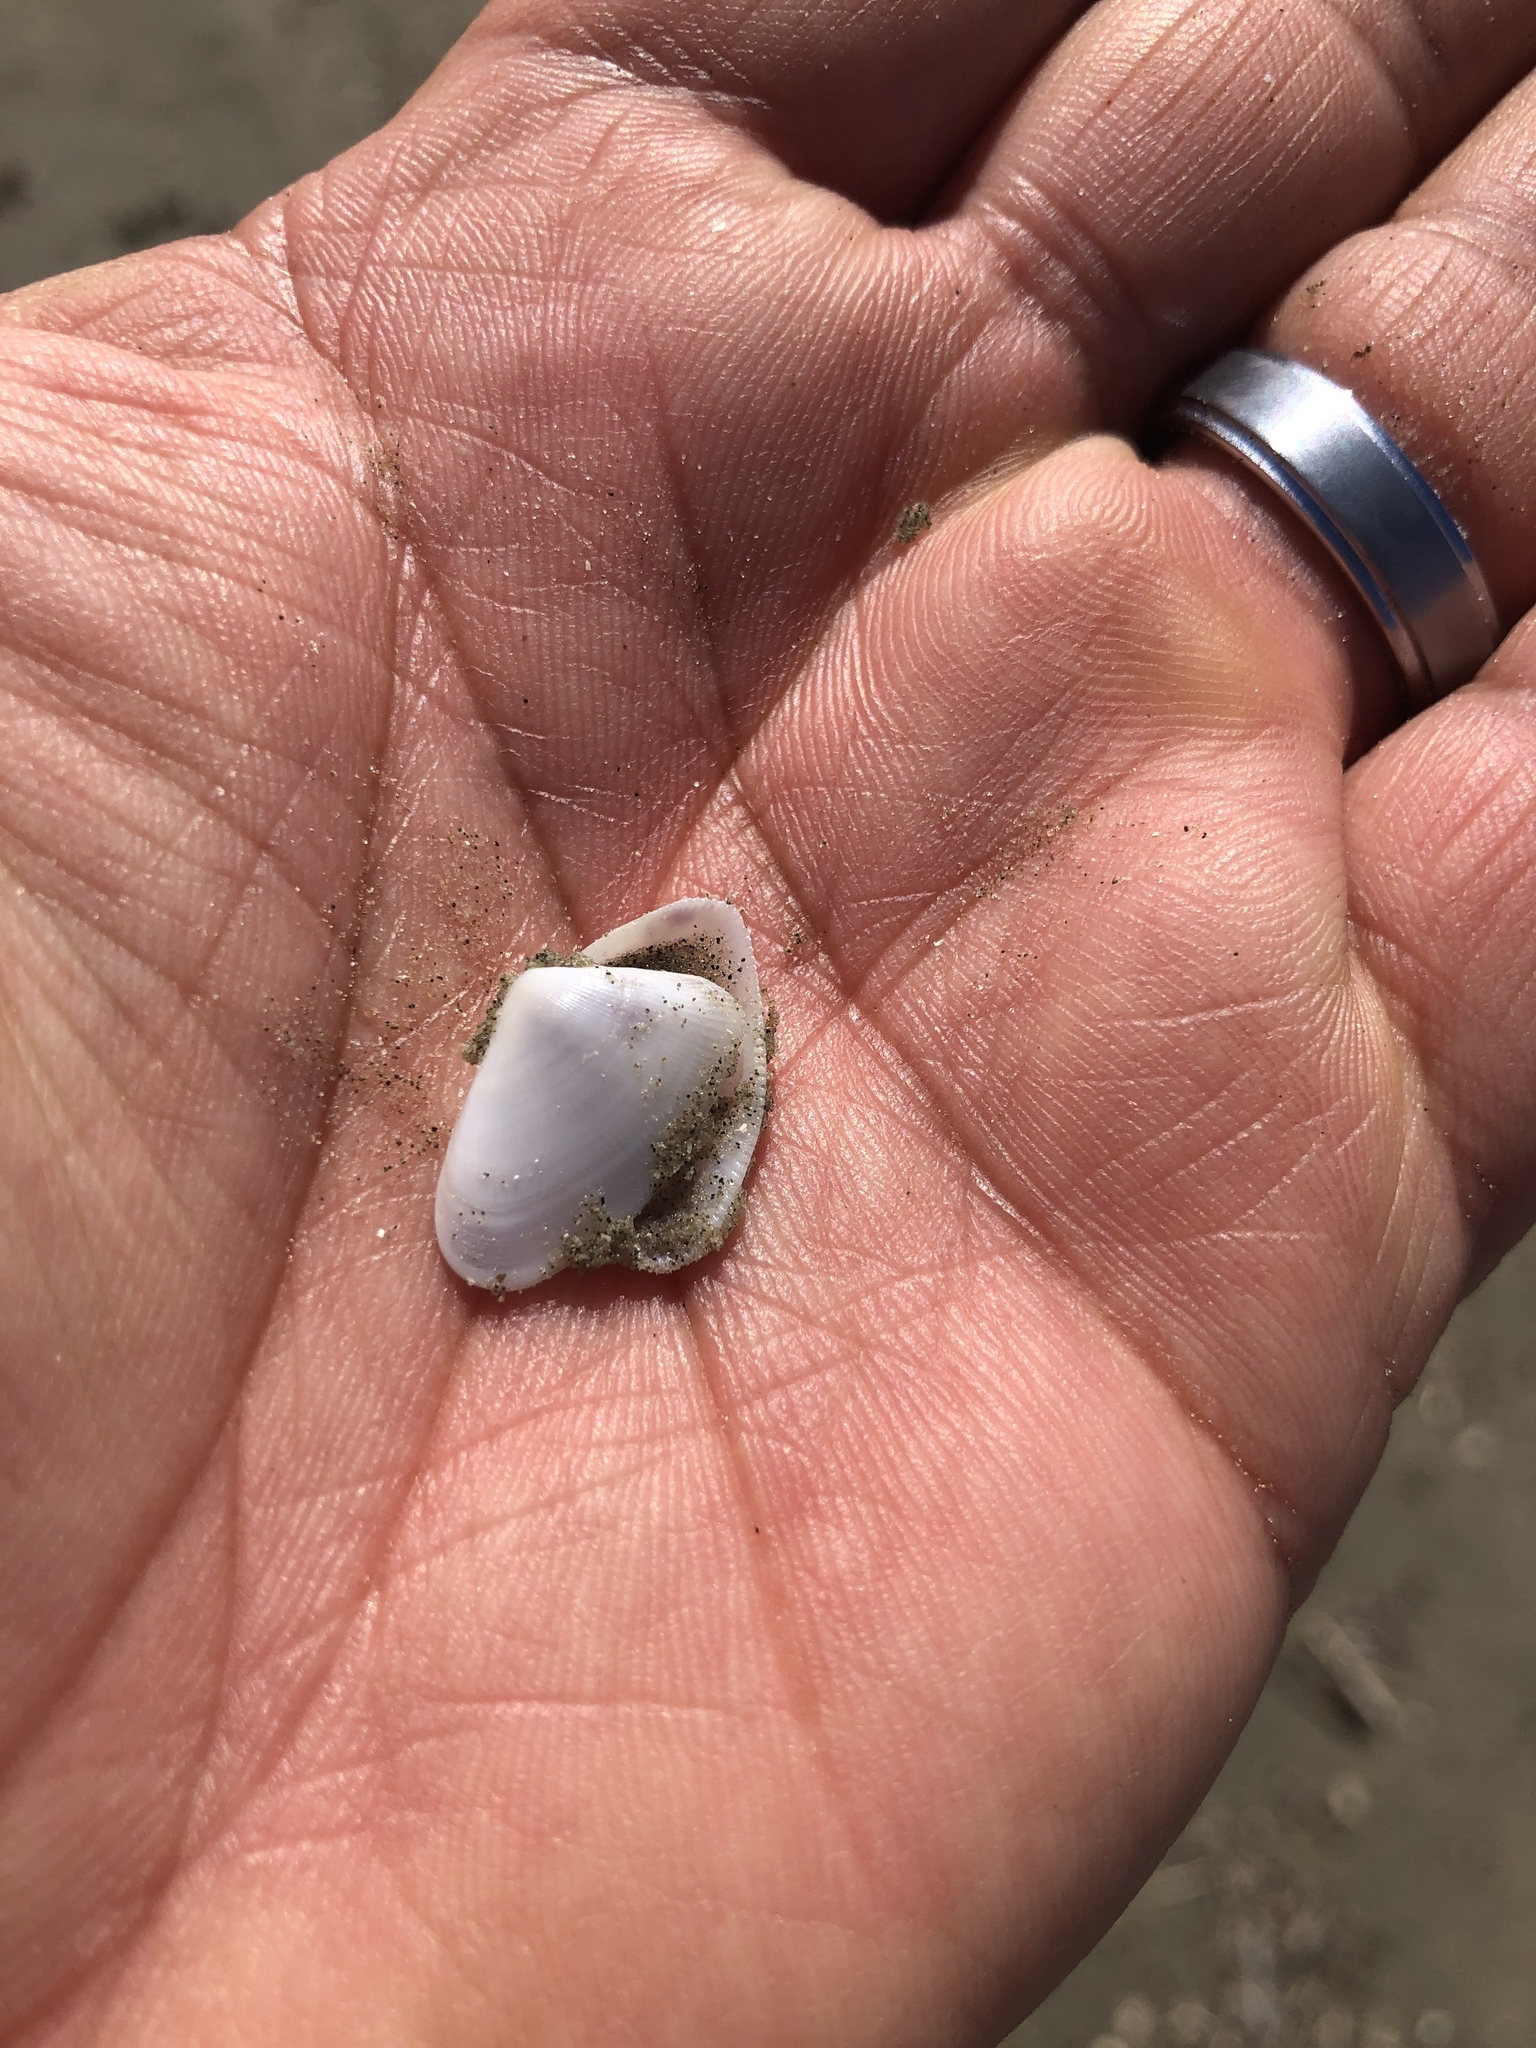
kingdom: Animalia
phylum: Mollusca
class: Bivalvia
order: Cardiida
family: Donacidae
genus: Donax
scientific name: Donax variabilis
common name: Butterfly shell
